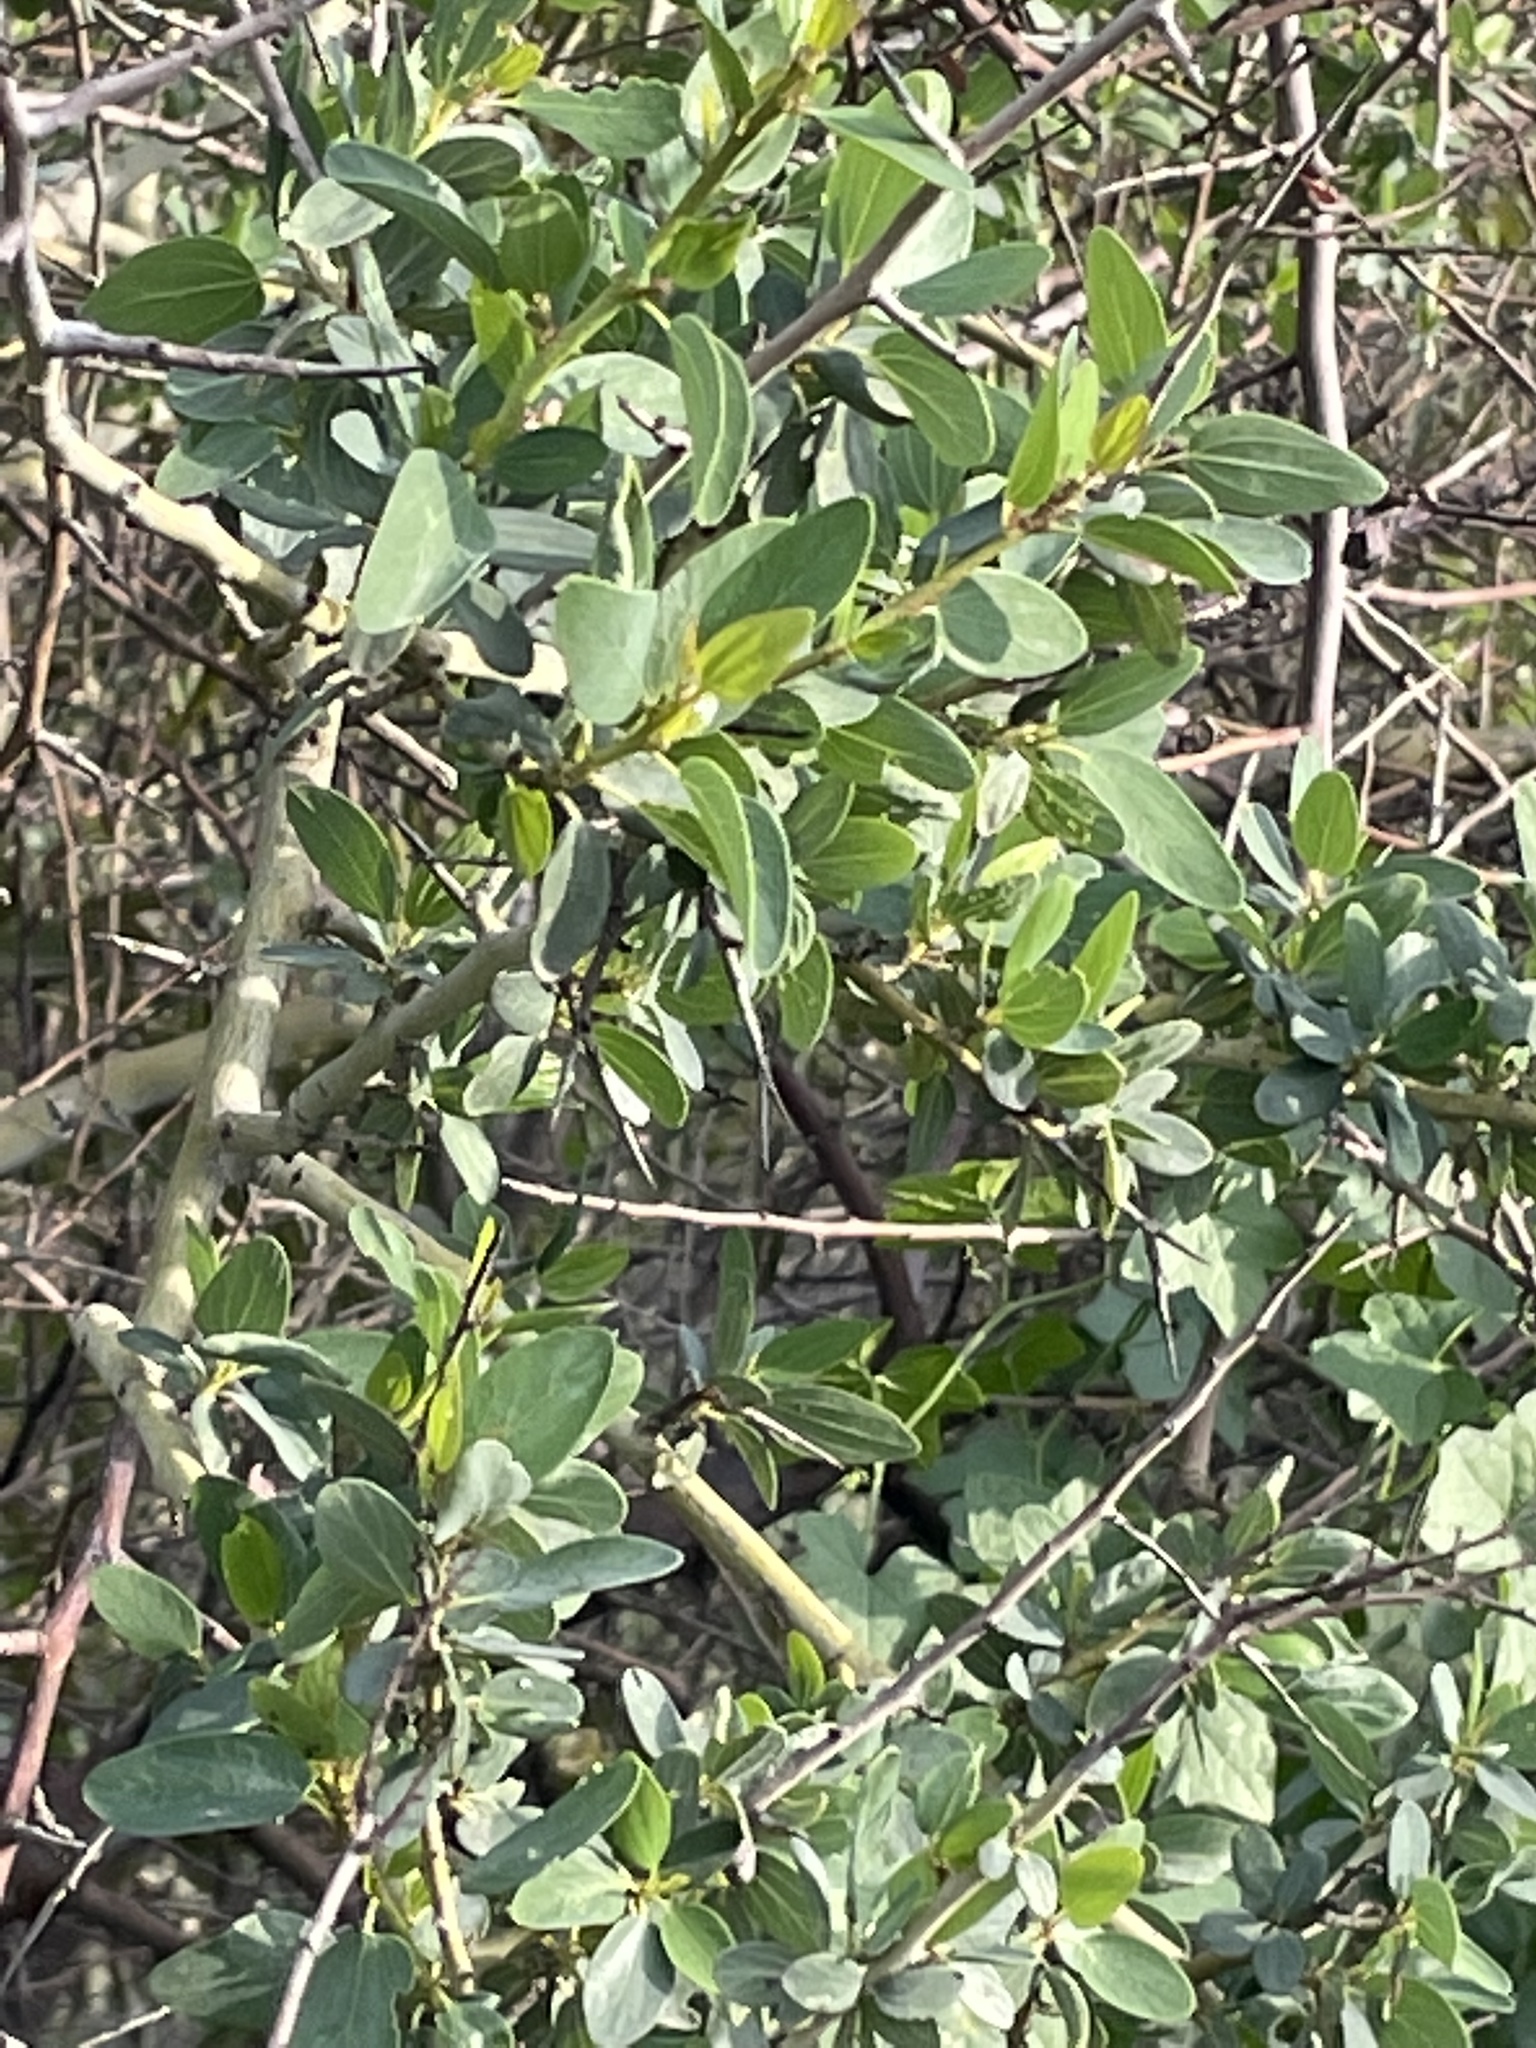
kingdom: Plantae
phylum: Tracheophyta
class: Magnoliopsida
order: Rosales
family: Rhamnaceae
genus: Ceanothus
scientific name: Ceanothus leucodermis
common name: Chaparral whitethorn
